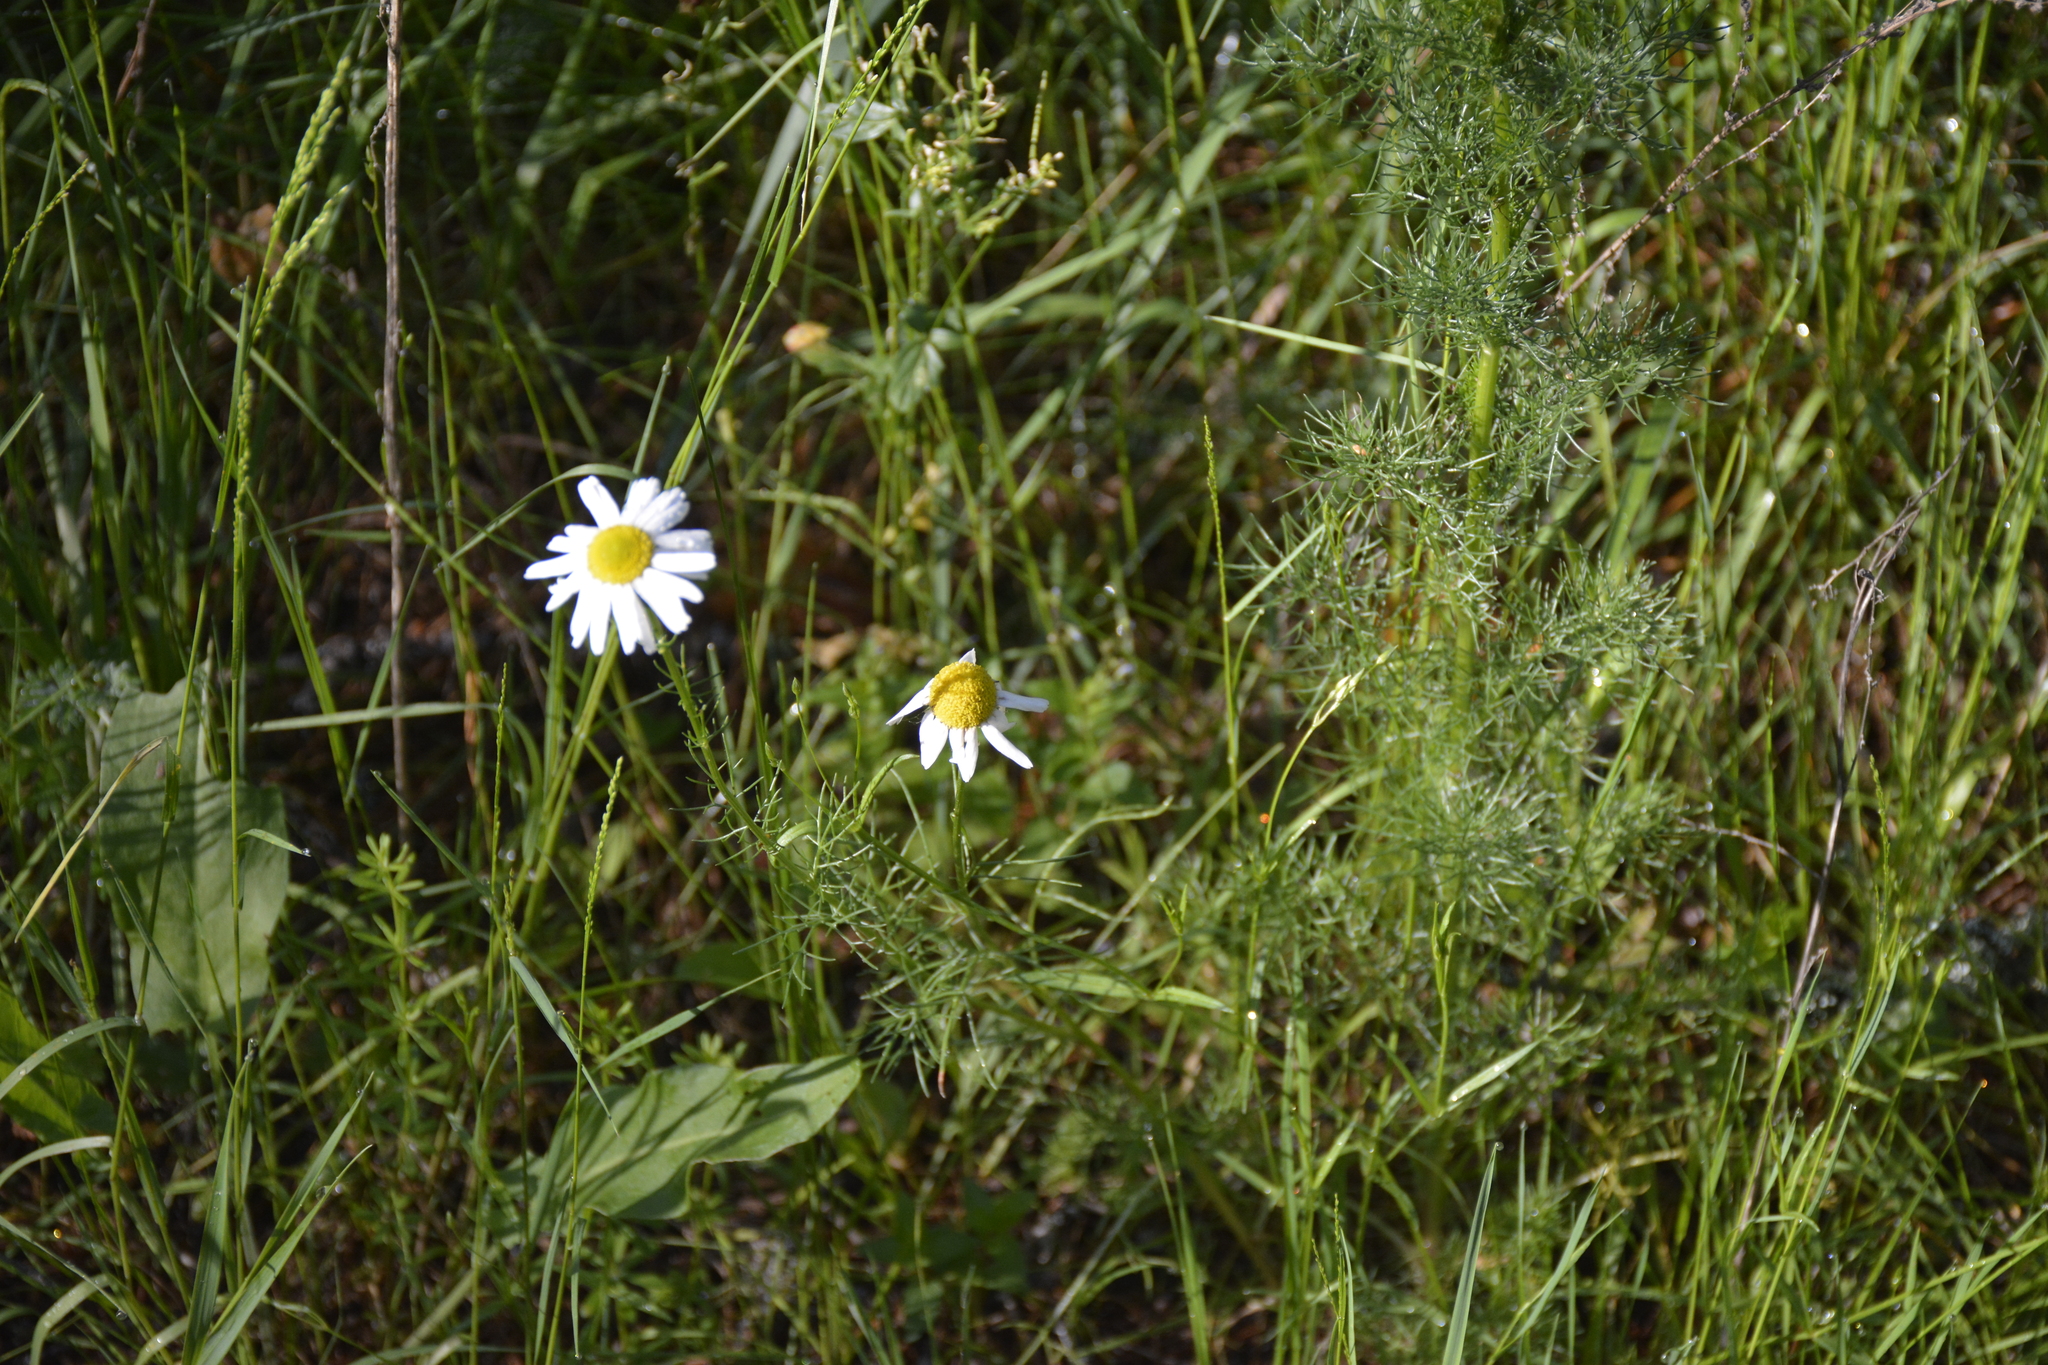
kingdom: Plantae
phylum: Tracheophyta
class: Magnoliopsida
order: Asterales
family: Asteraceae
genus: Tripleurospermum
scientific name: Tripleurospermum inodorum
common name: Scentless mayweed
